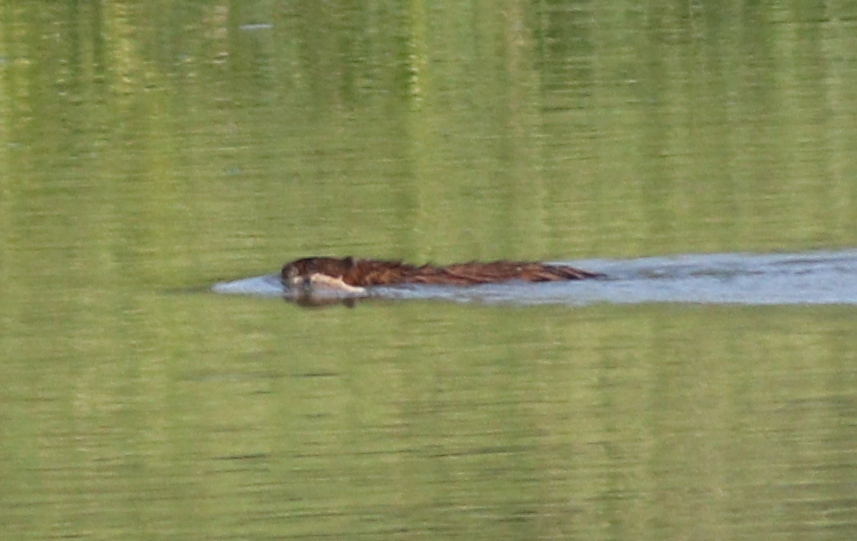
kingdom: Animalia
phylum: Chordata
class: Mammalia
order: Rodentia
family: Cricetidae
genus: Ondatra
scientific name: Ondatra zibethicus
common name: Muskrat
